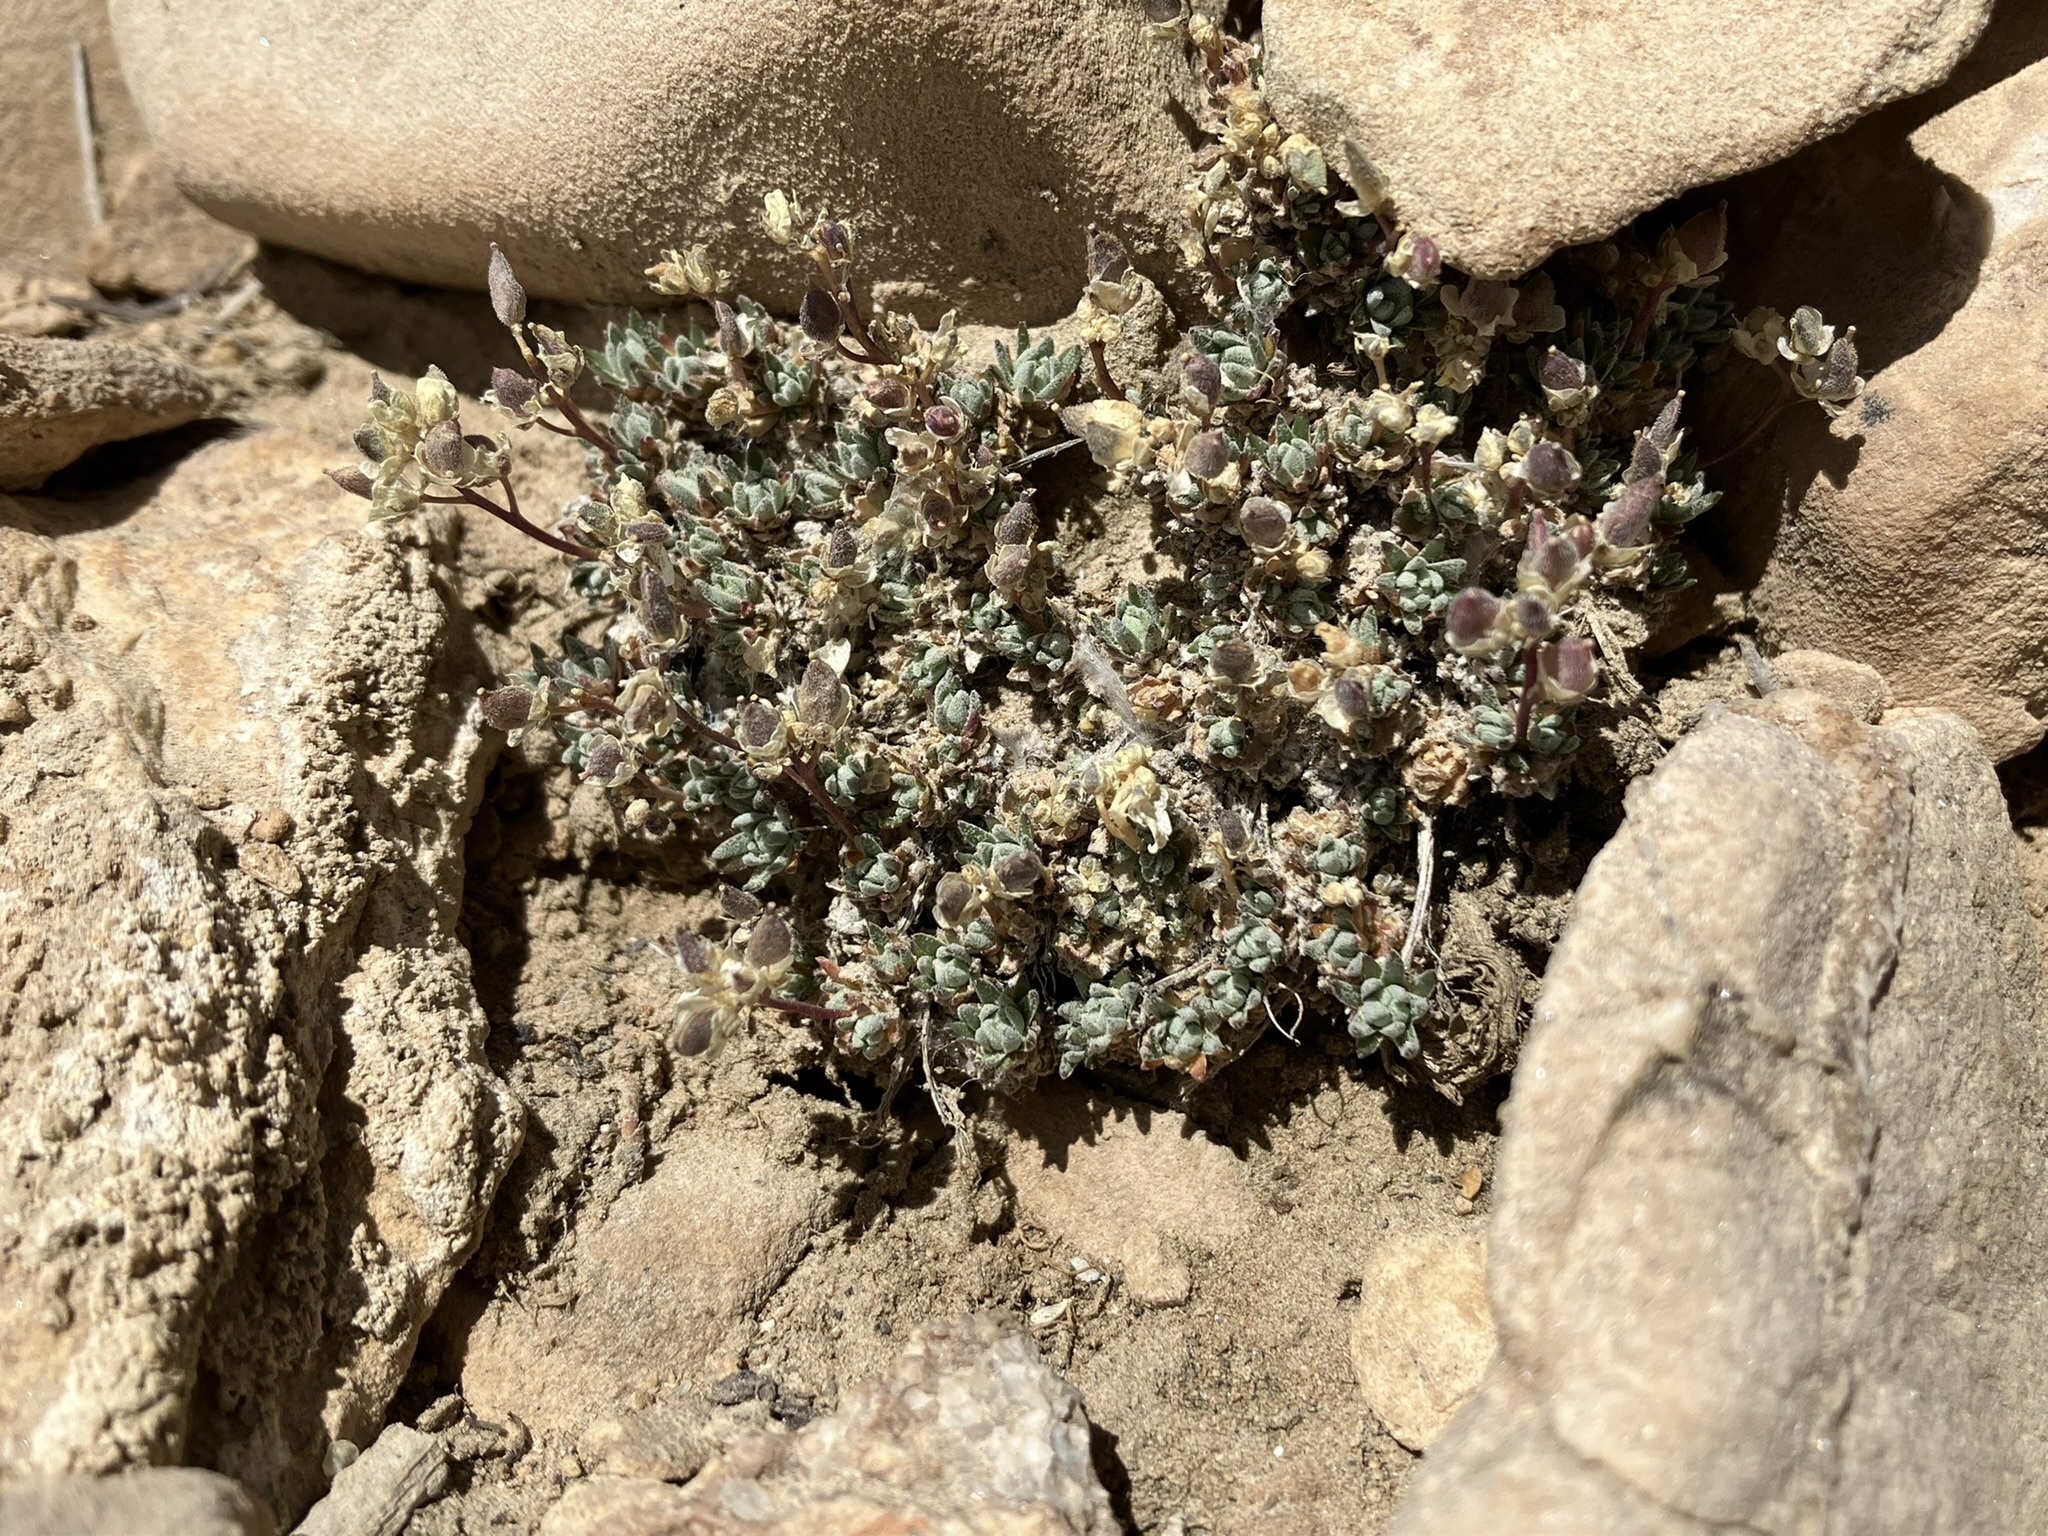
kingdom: Plantae
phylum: Tracheophyta
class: Magnoliopsida
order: Brassicales
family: Brassicaceae
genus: Draba
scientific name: Draba oligosperma
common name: Few-seed draba
